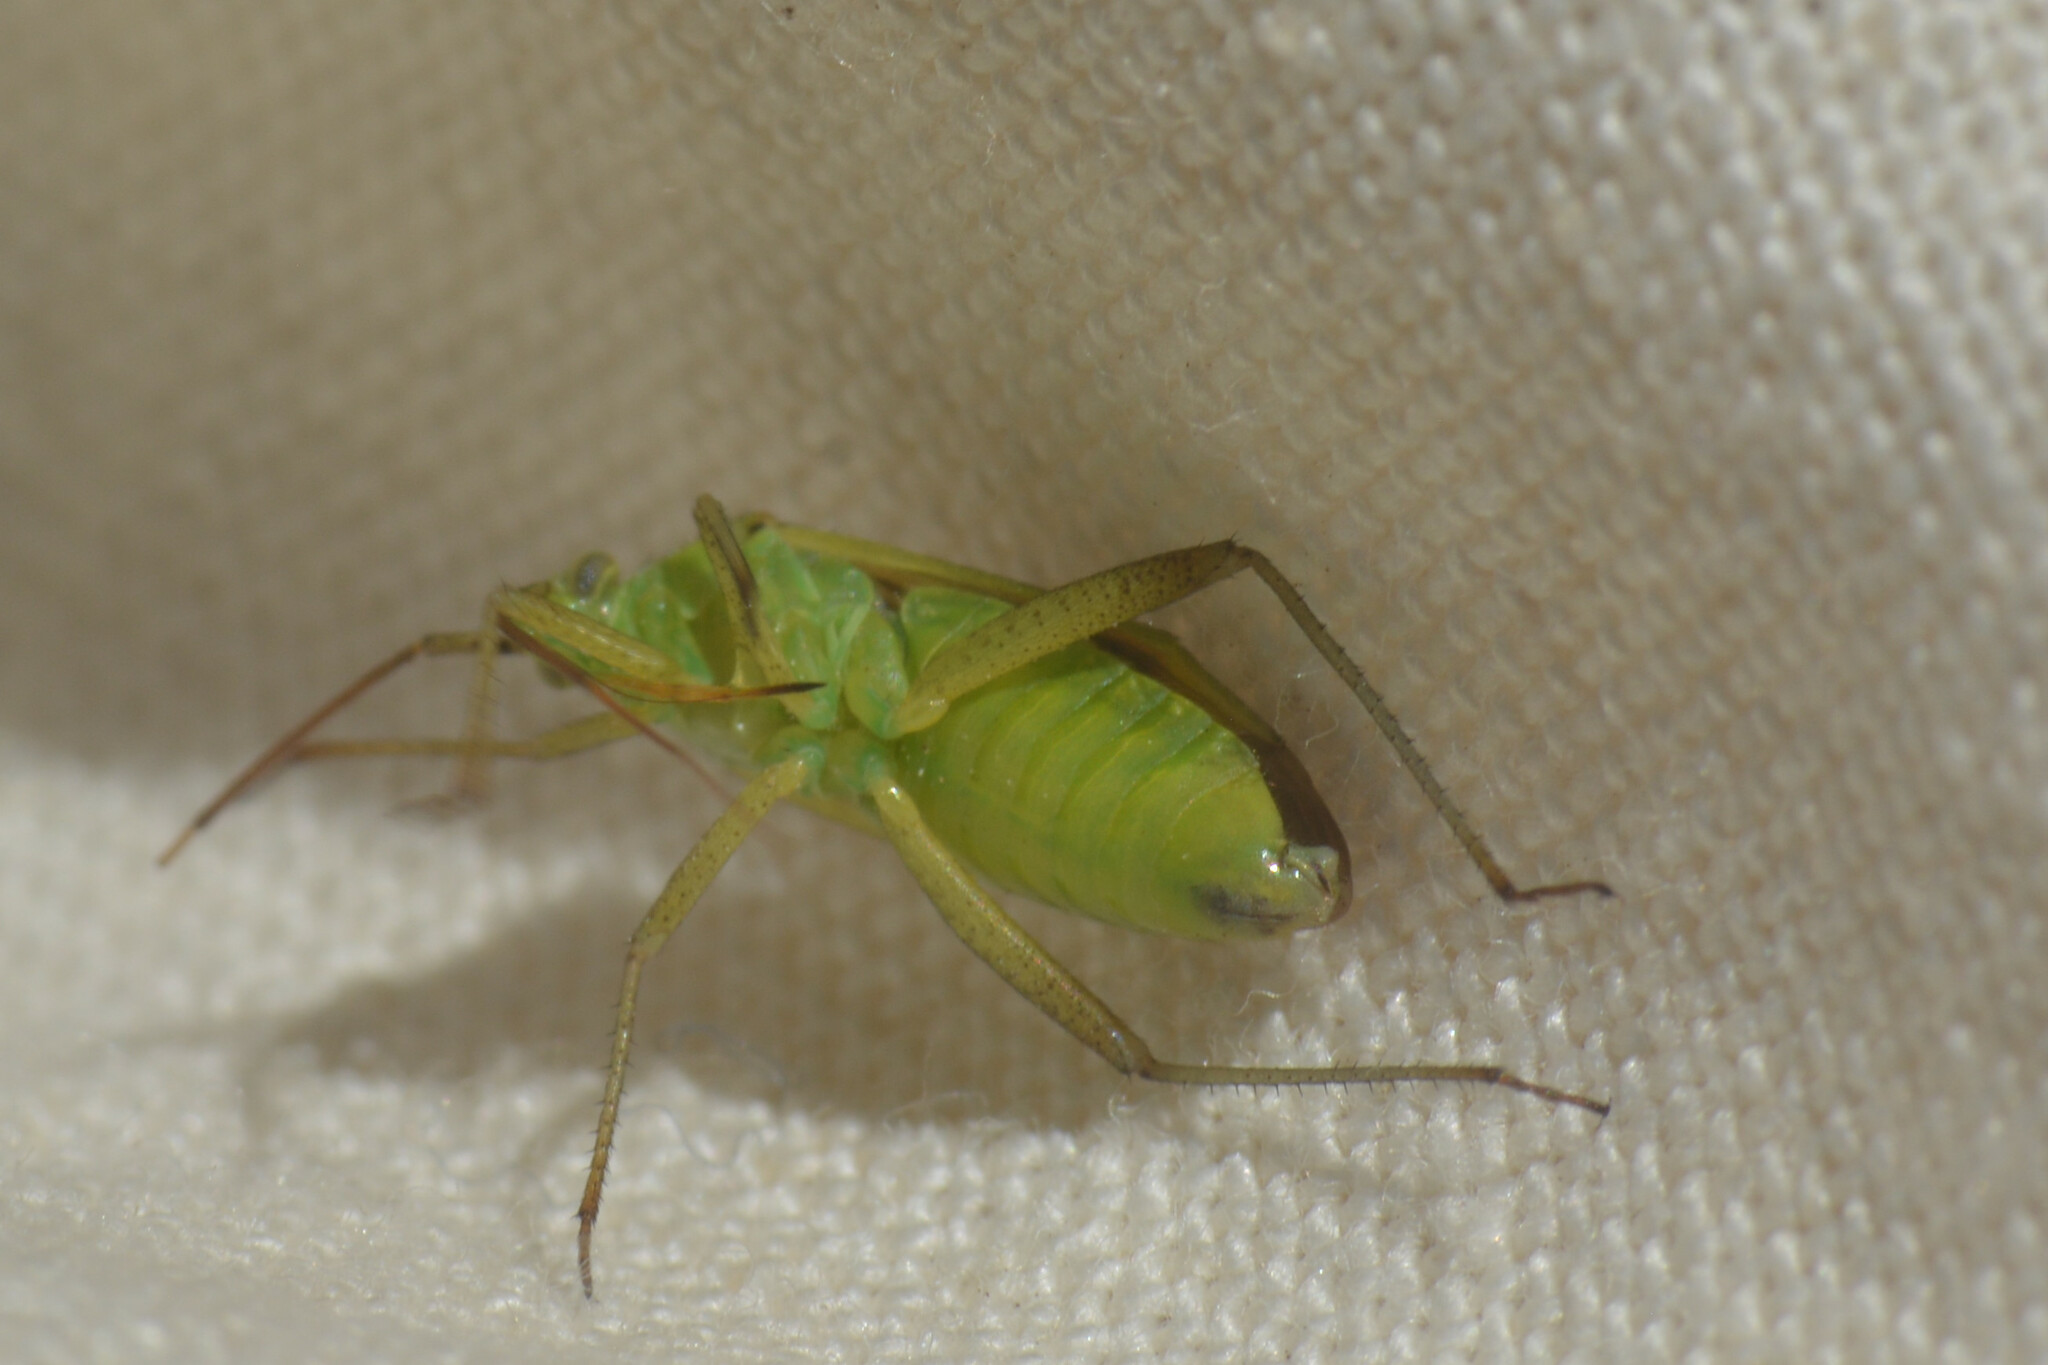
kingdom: Animalia
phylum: Arthropoda
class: Insecta
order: Hemiptera
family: Miridae
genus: Closterotomus
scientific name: Closterotomus norvegicus
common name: Plant bug
